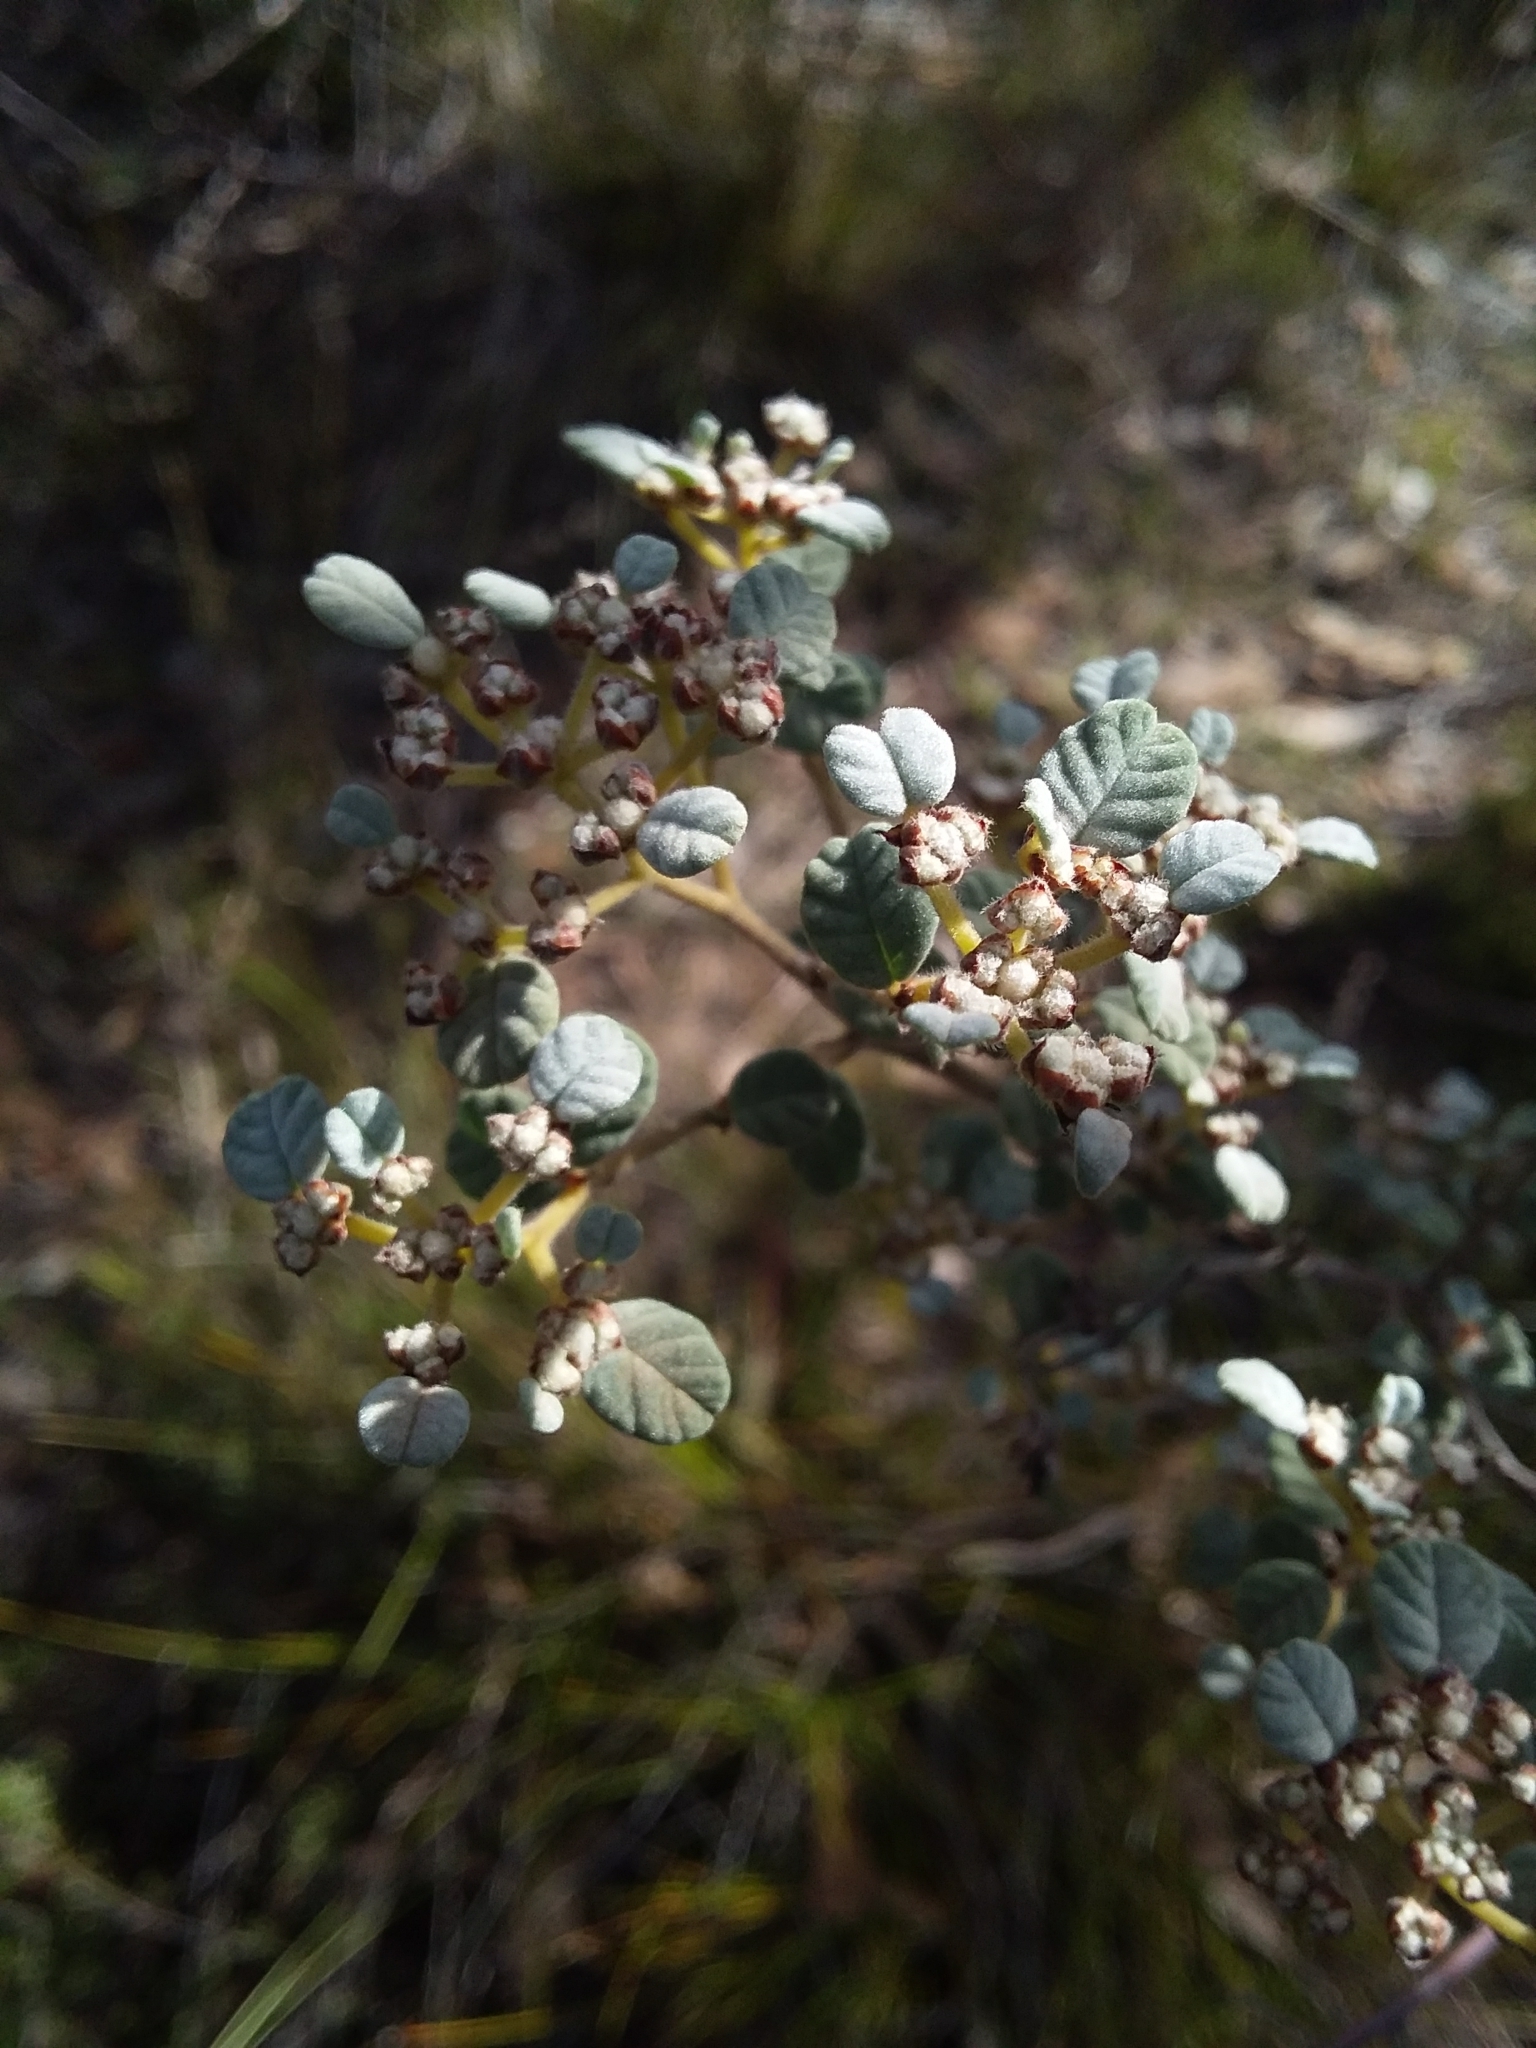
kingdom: Plantae
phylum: Tracheophyta
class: Magnoliopsida
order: Rosales
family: Rhamnaceae
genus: Spyridium
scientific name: Spyridium parvifolium
